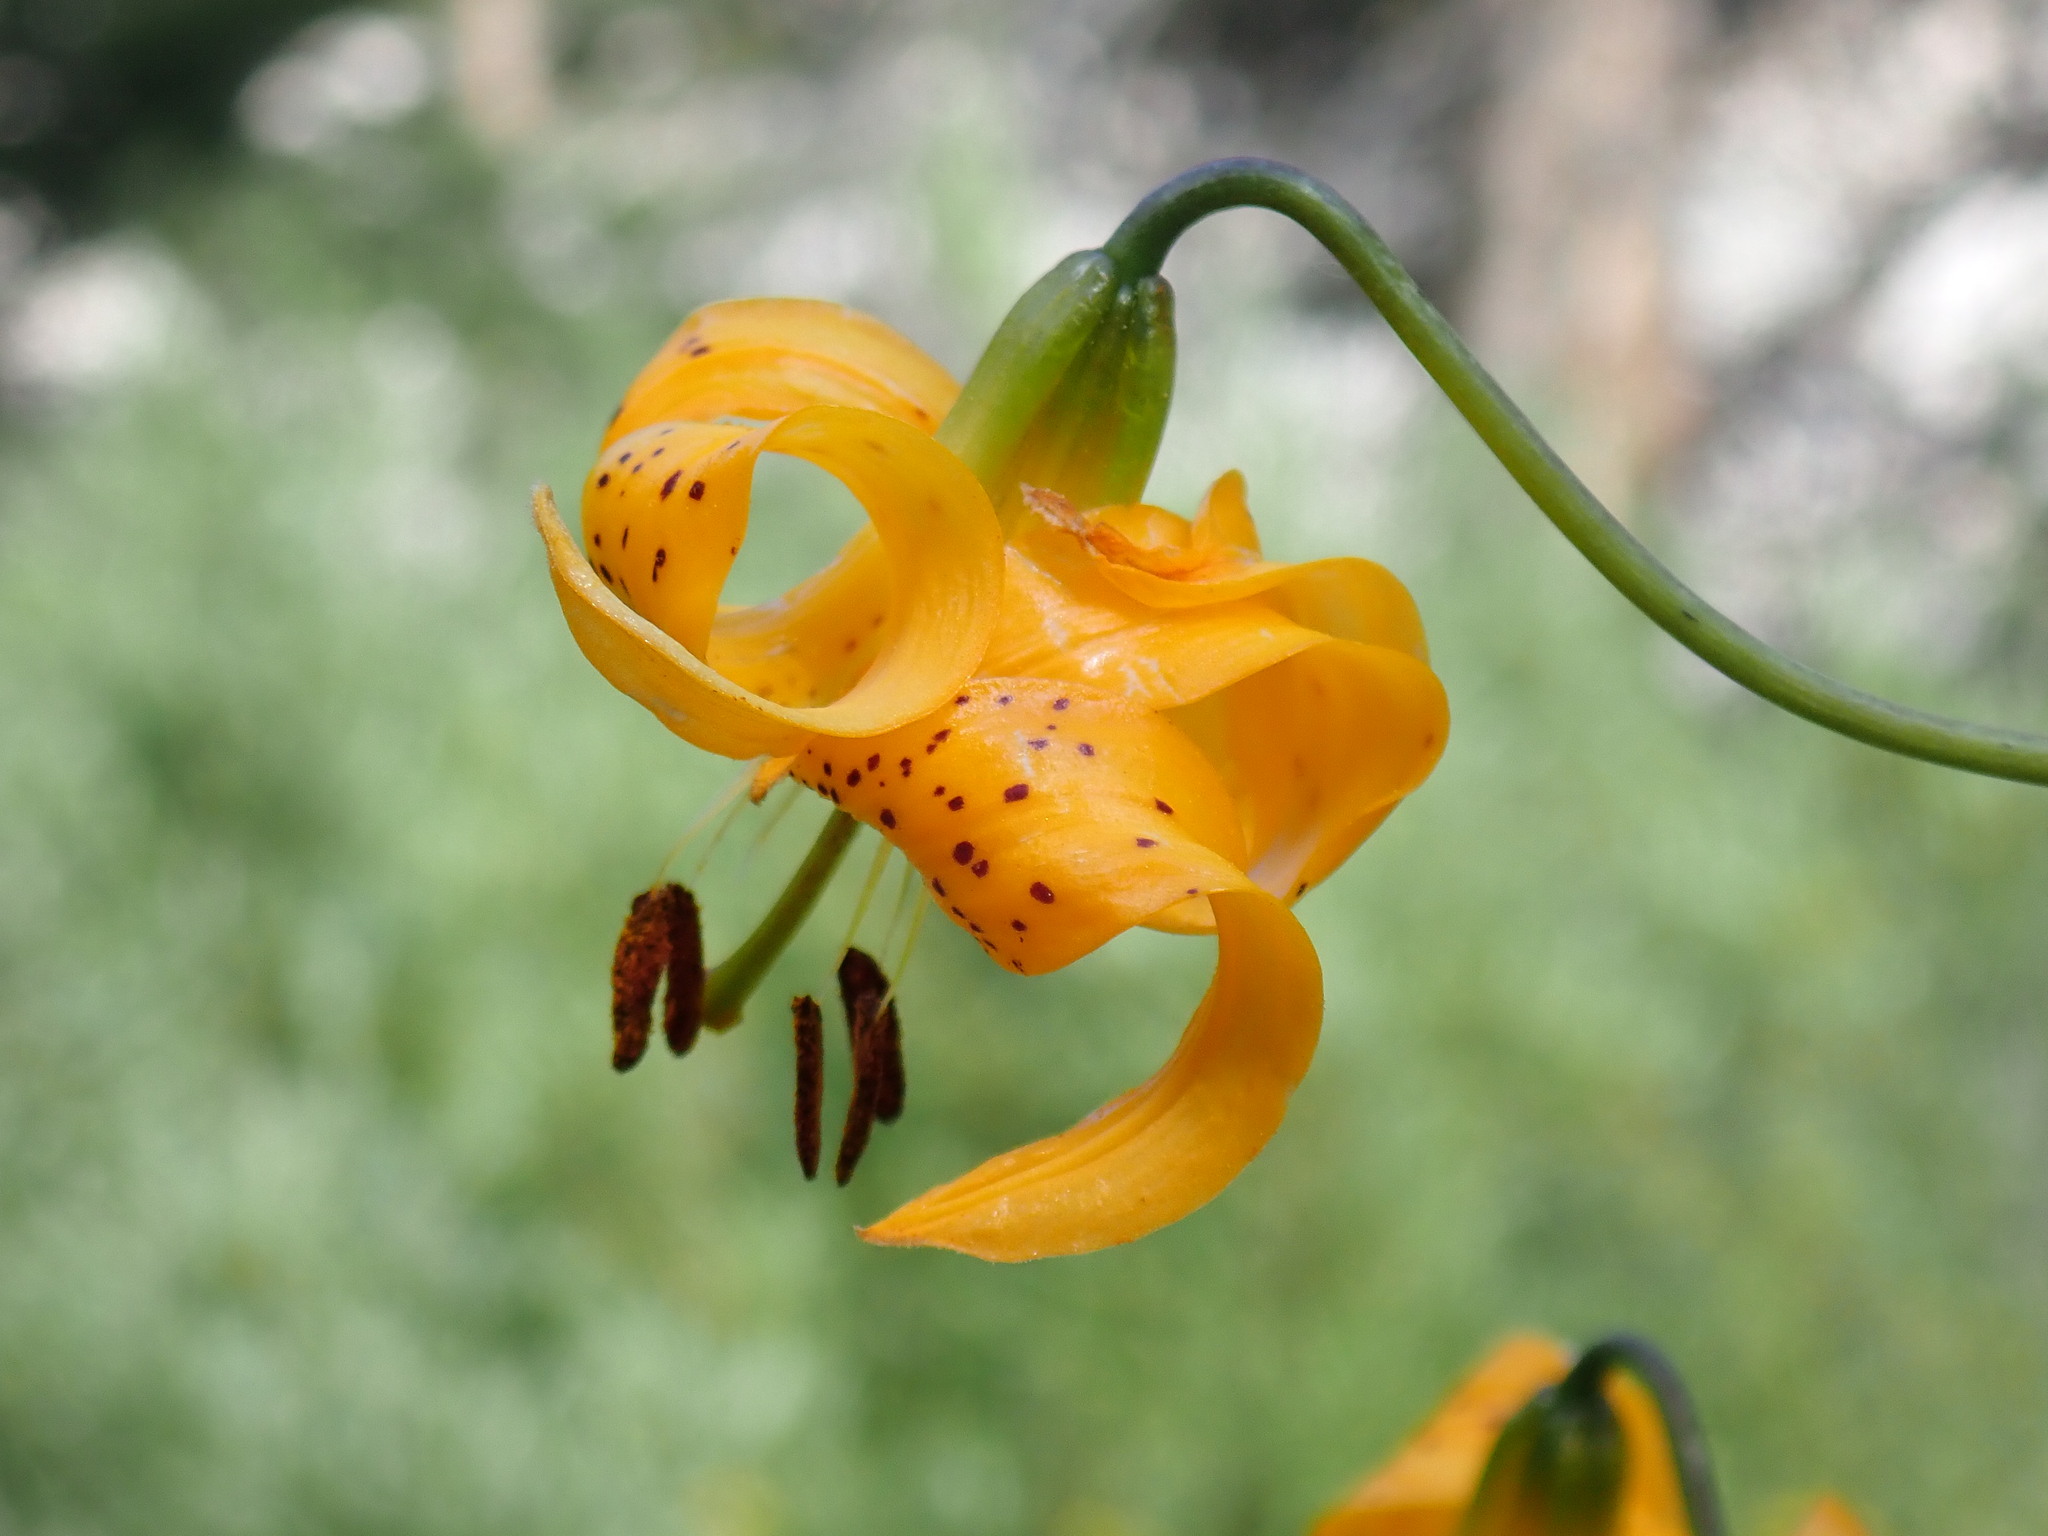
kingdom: Plantae
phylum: Tracheophyta
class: Liliopsida
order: Liliales
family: Liliaceae
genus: Lilium
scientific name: Lilium kelleyanum
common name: Kelley's lily
